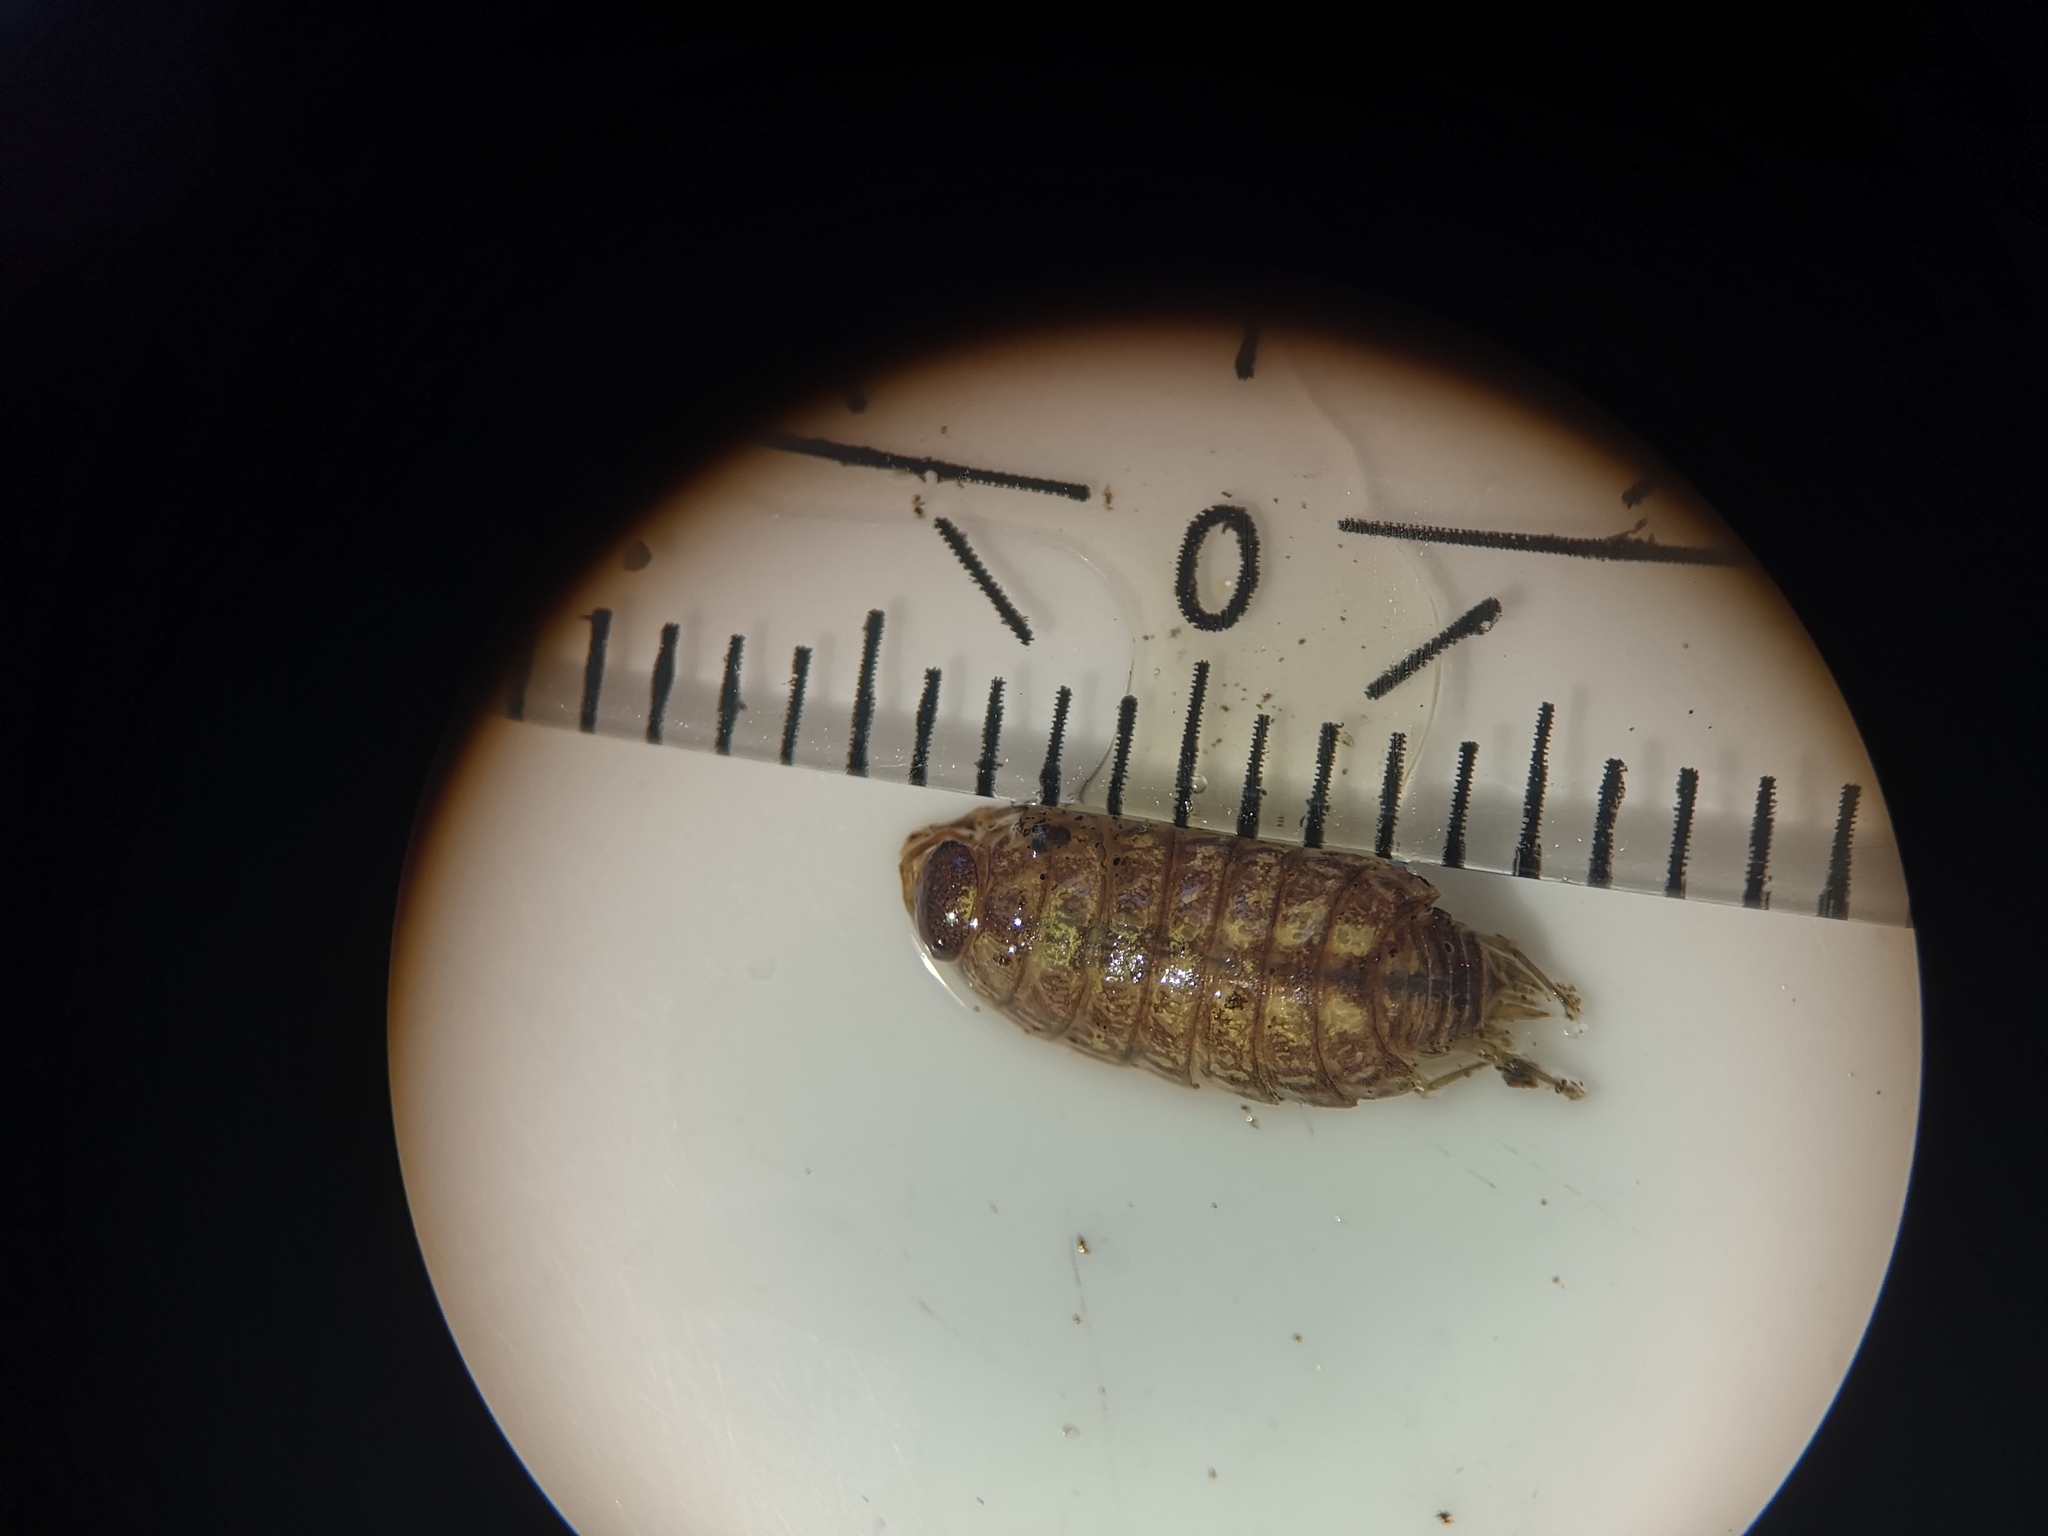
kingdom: Animalia
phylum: Arthropoda
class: Malacostraca
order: Isopoda
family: Philosciidae
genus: Philoscia
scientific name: Philoscia muscorum
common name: Common striped woodlouse
